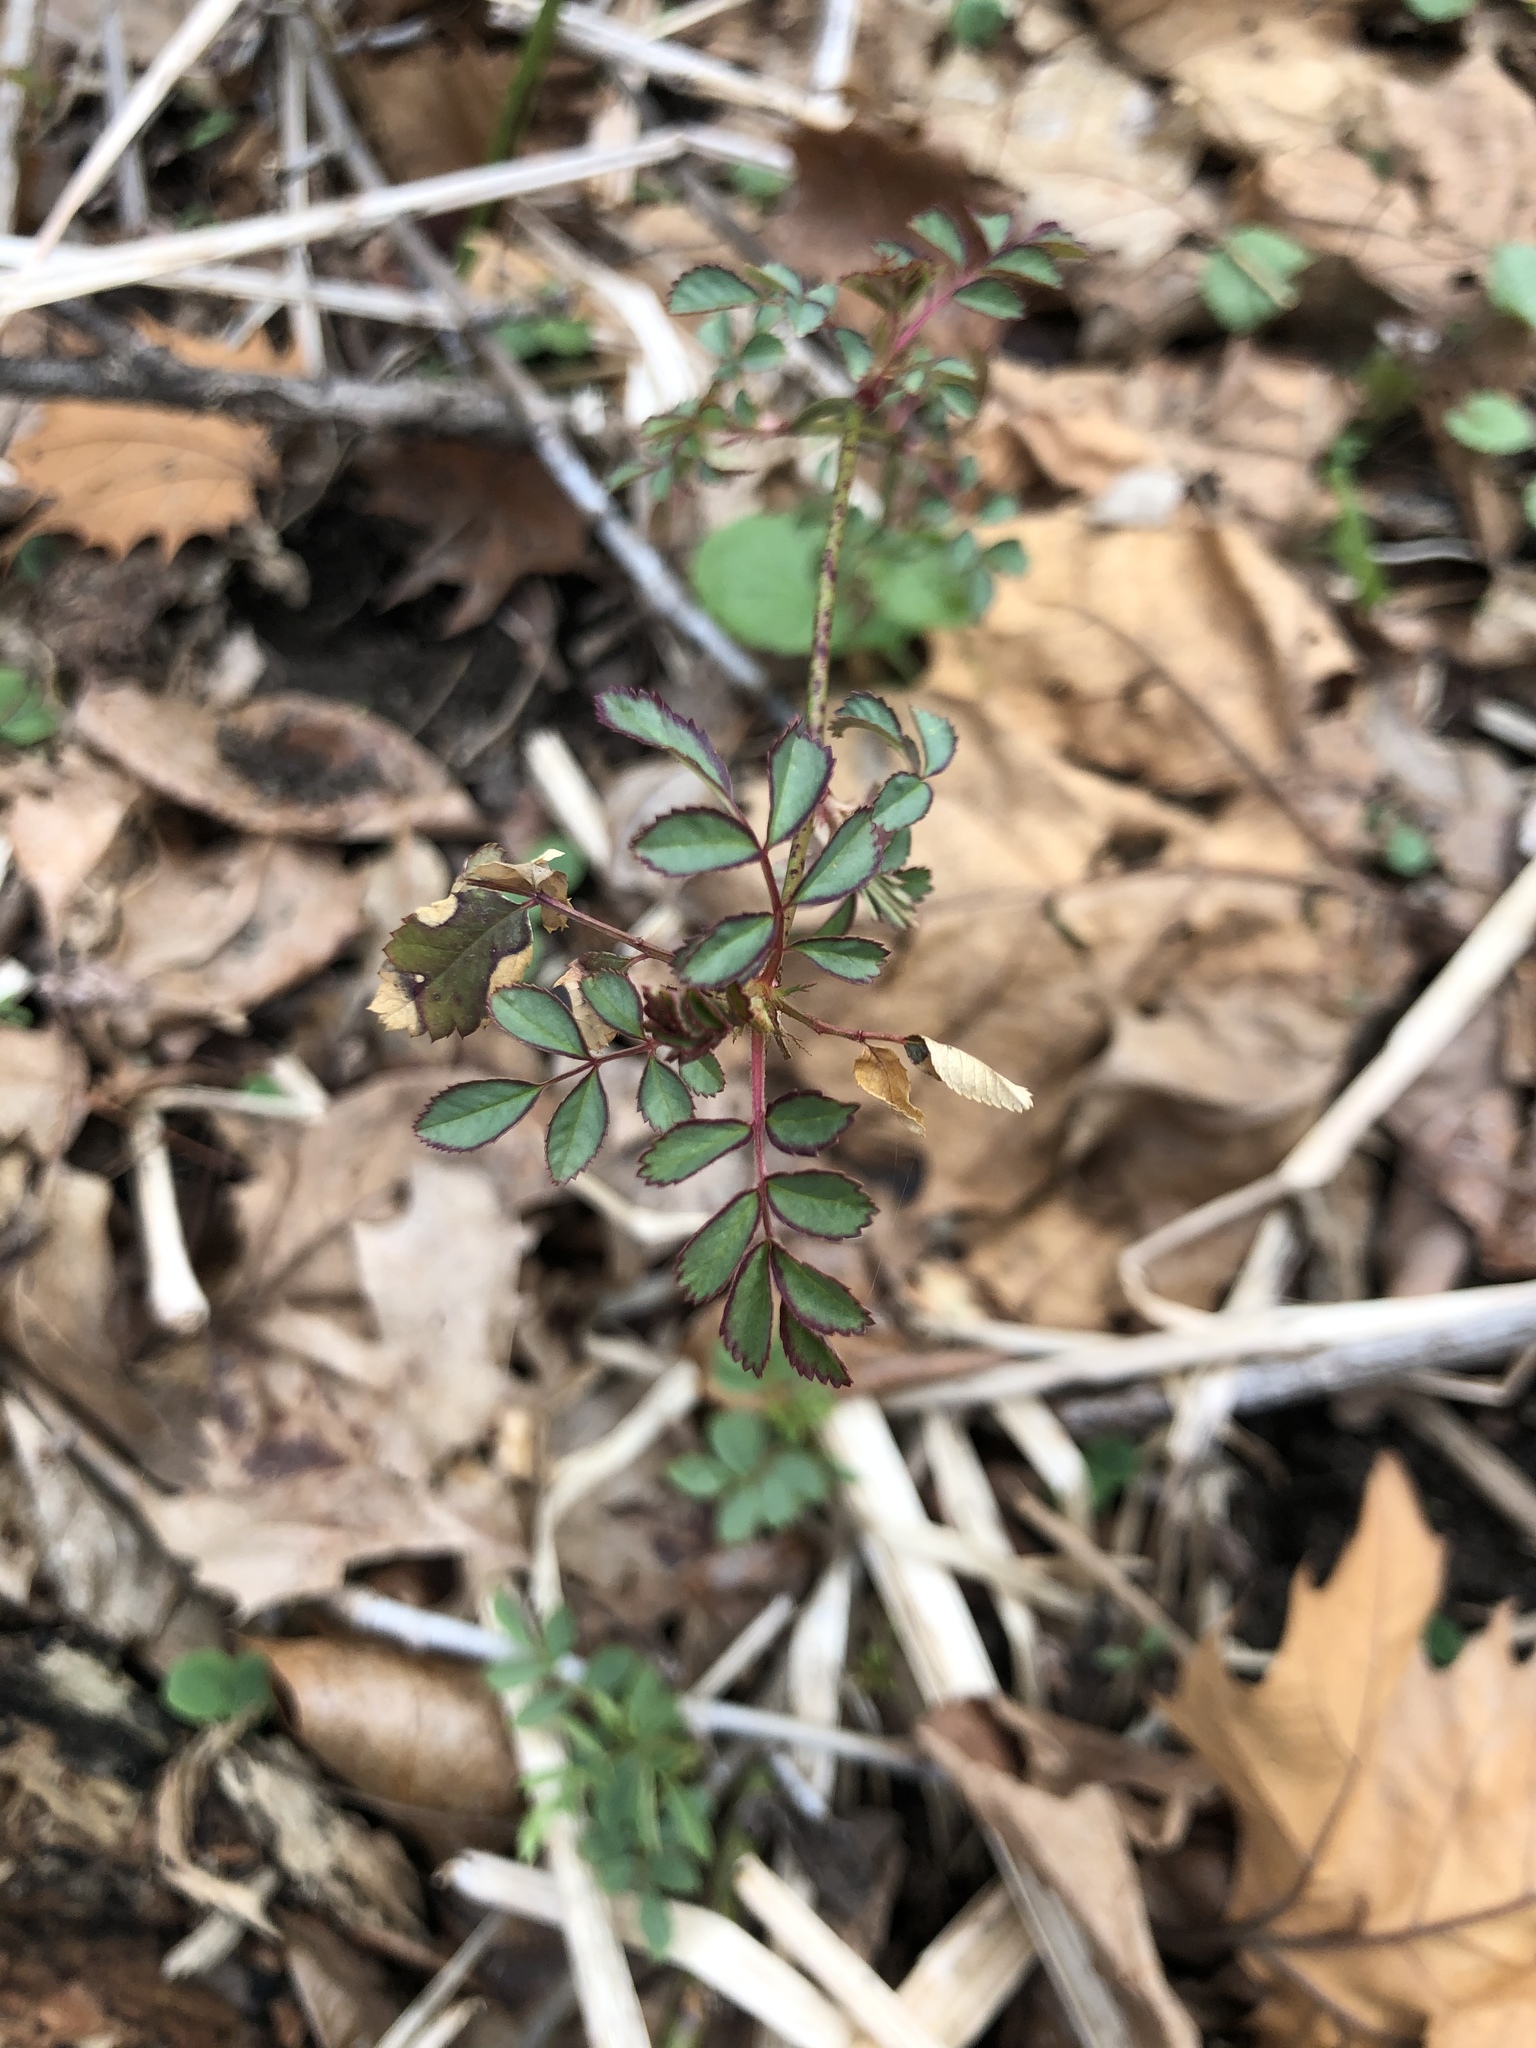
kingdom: Plantae
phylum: Tracheophyta
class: Magnoliopsida
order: Rosales
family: Rosaceae
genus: Rosa
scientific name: Rosa multiflora
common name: Multiflora rose
